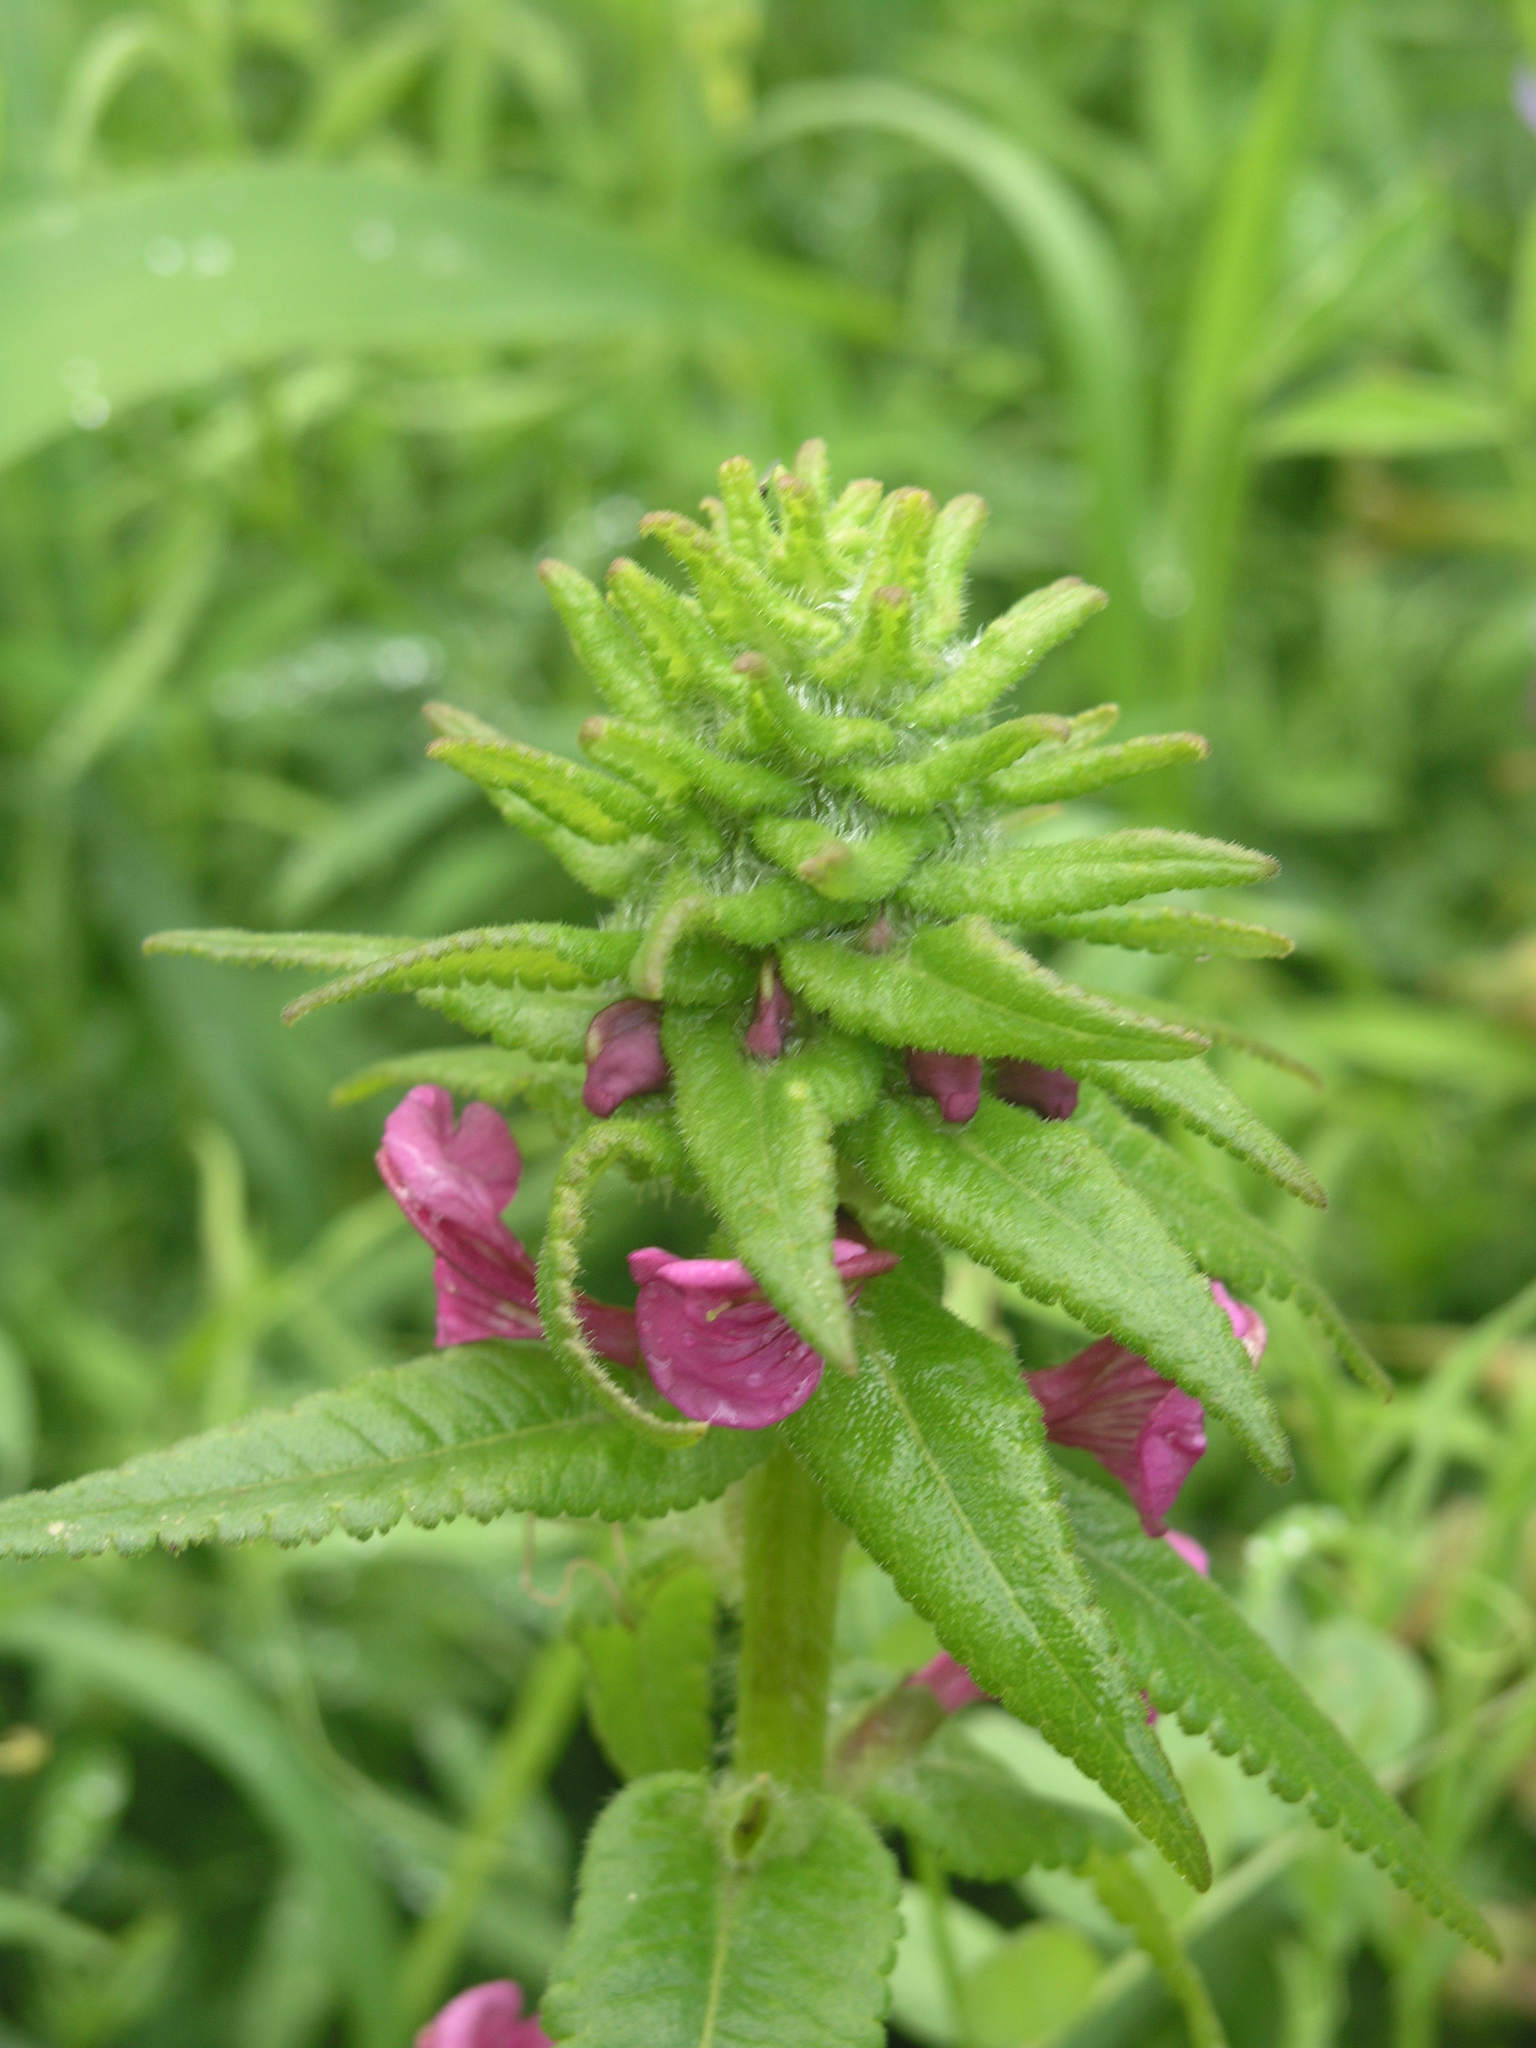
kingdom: Plantae
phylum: Tracheophyta
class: Magnoliopsida
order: Lamiales
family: Orobanchaceae
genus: Pedicularis
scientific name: Pedicularis resupinata
